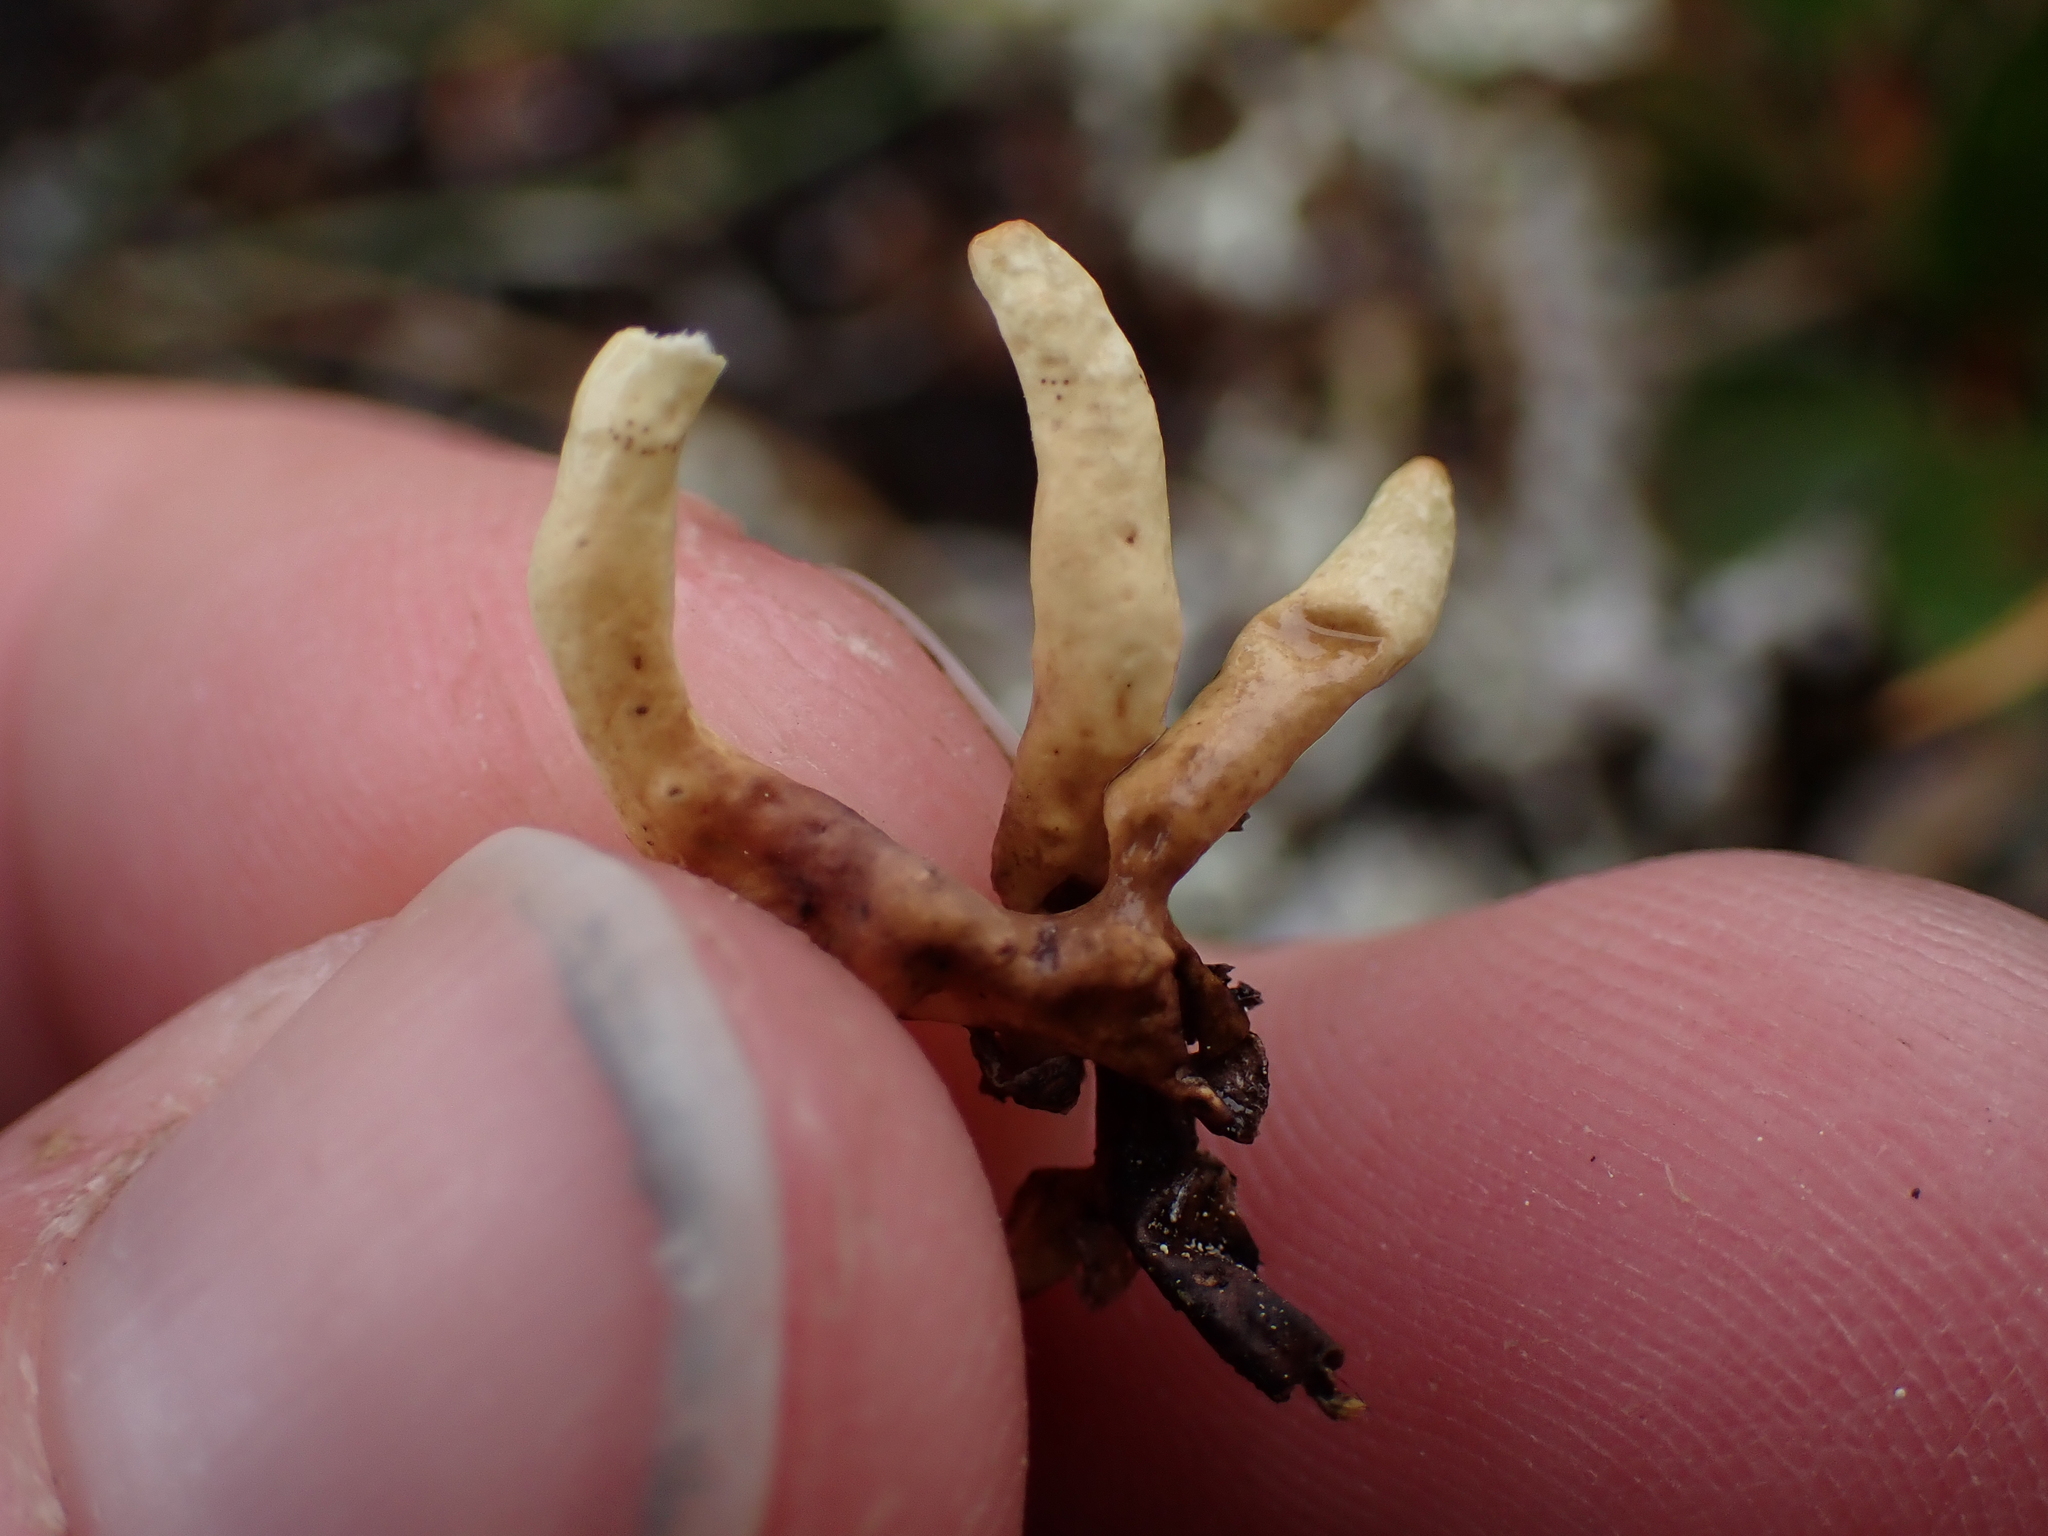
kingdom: Fungi
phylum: Ascomycota
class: Lecanoromycetes
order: Lecanorales
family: Parmeliaceae
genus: Dactylina
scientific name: Dactylina arctica
